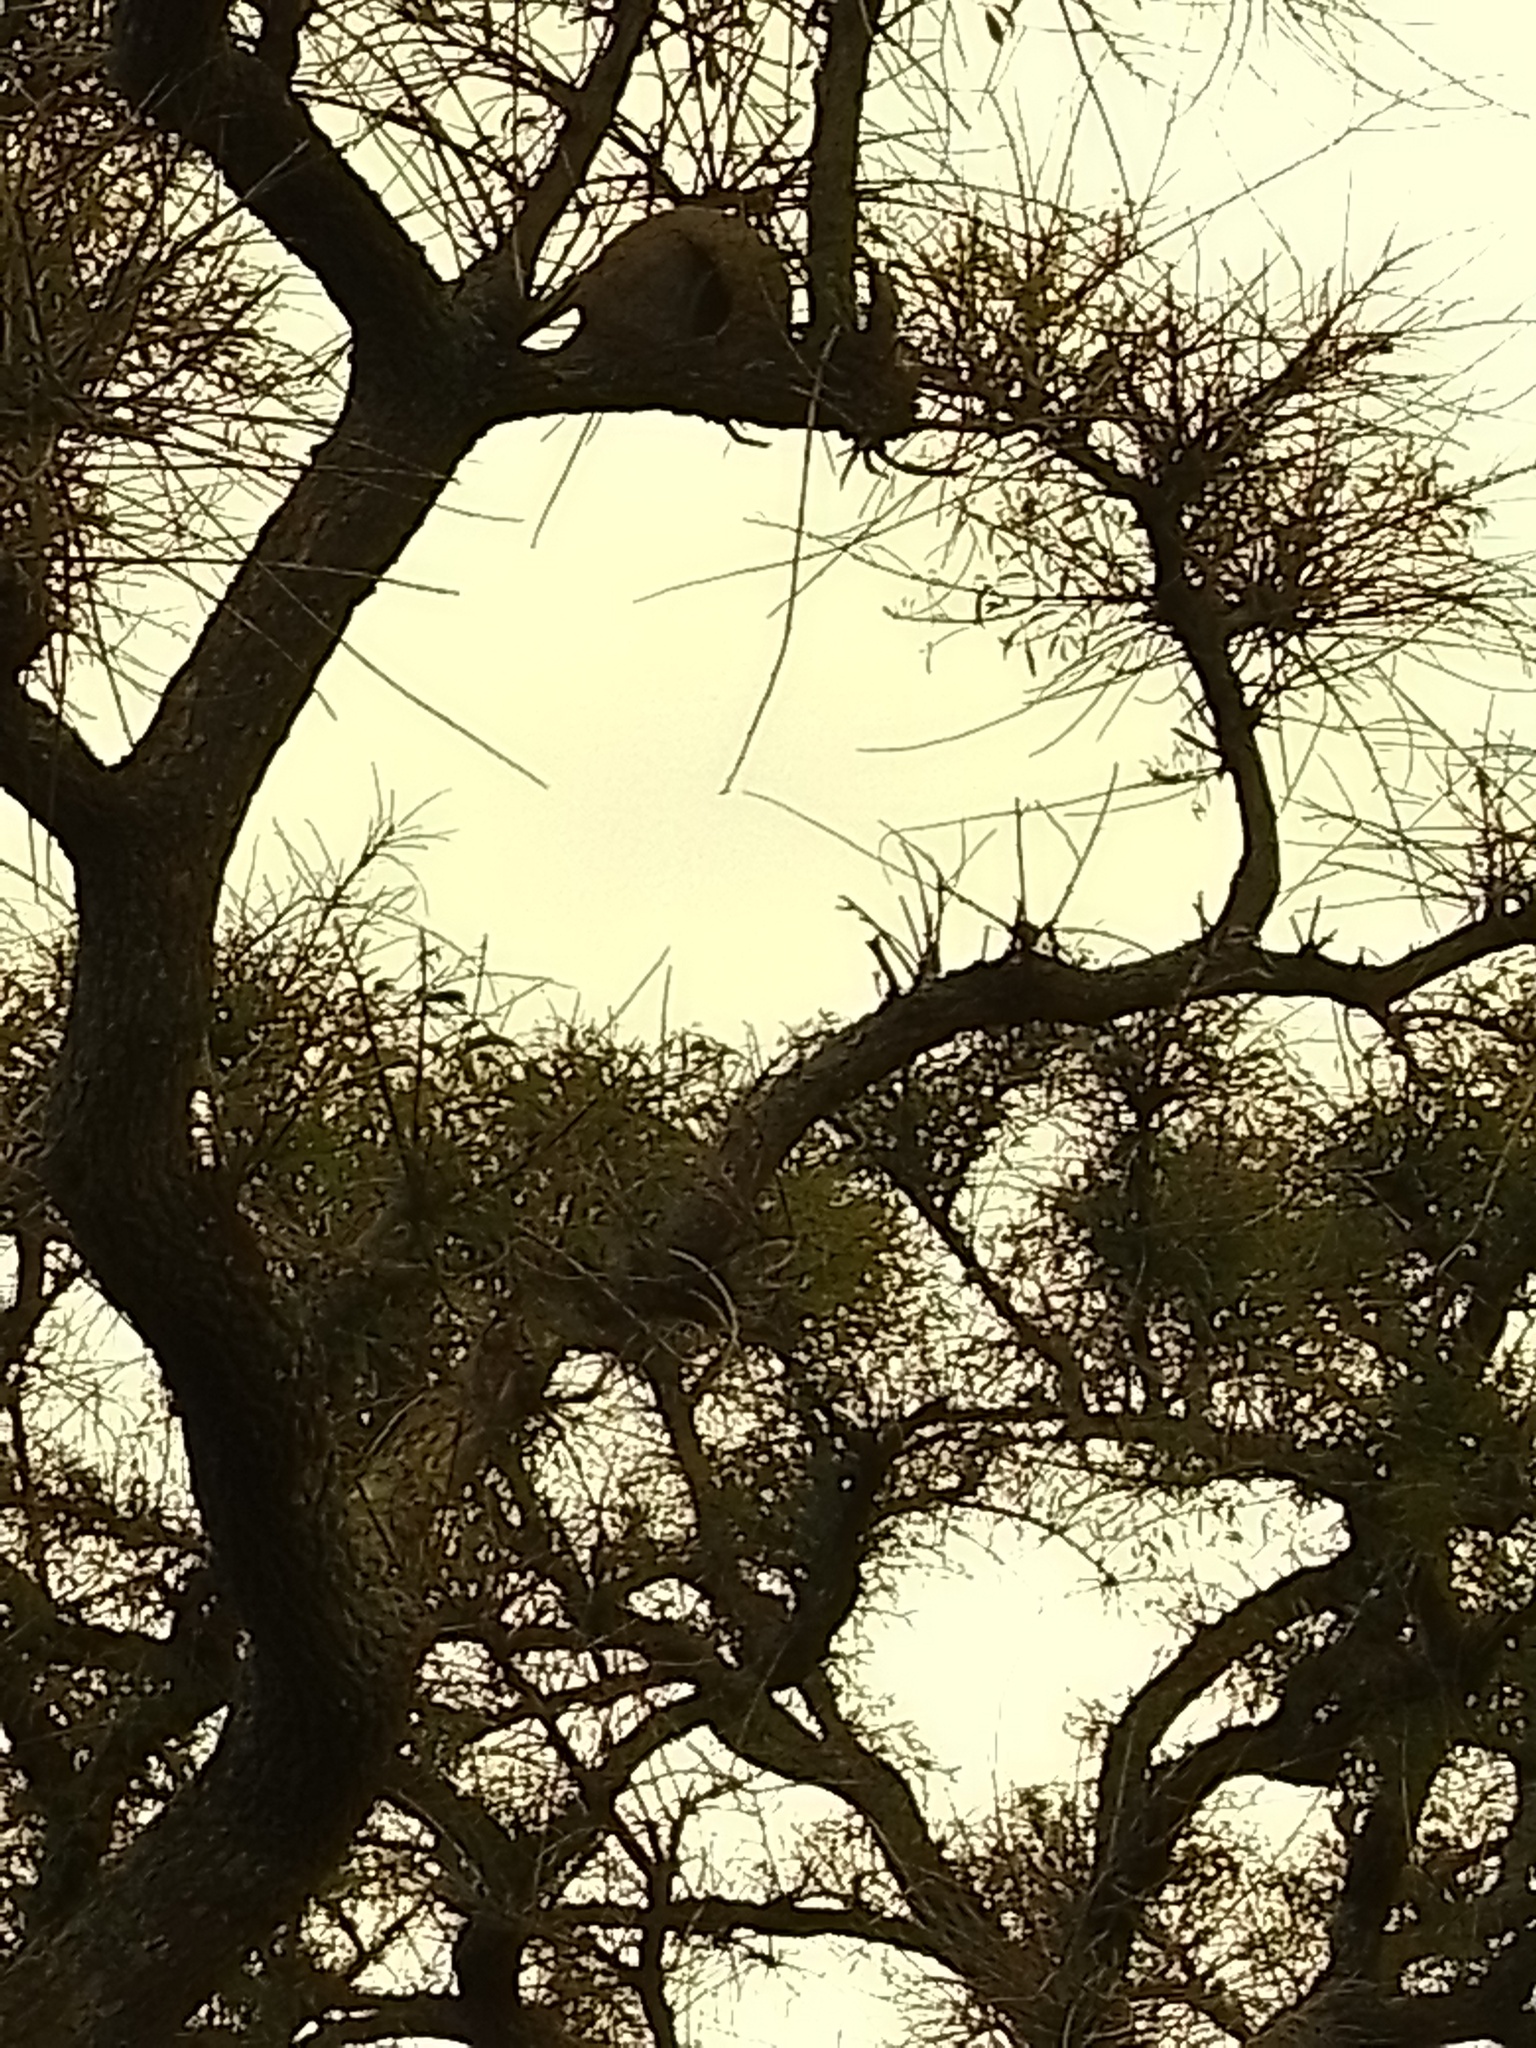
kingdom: Animalia
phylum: Chordata
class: Aves
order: Passeriformes
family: Furnariidae
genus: Furnarius
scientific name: Furnarius rufus
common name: Rufous hornero
